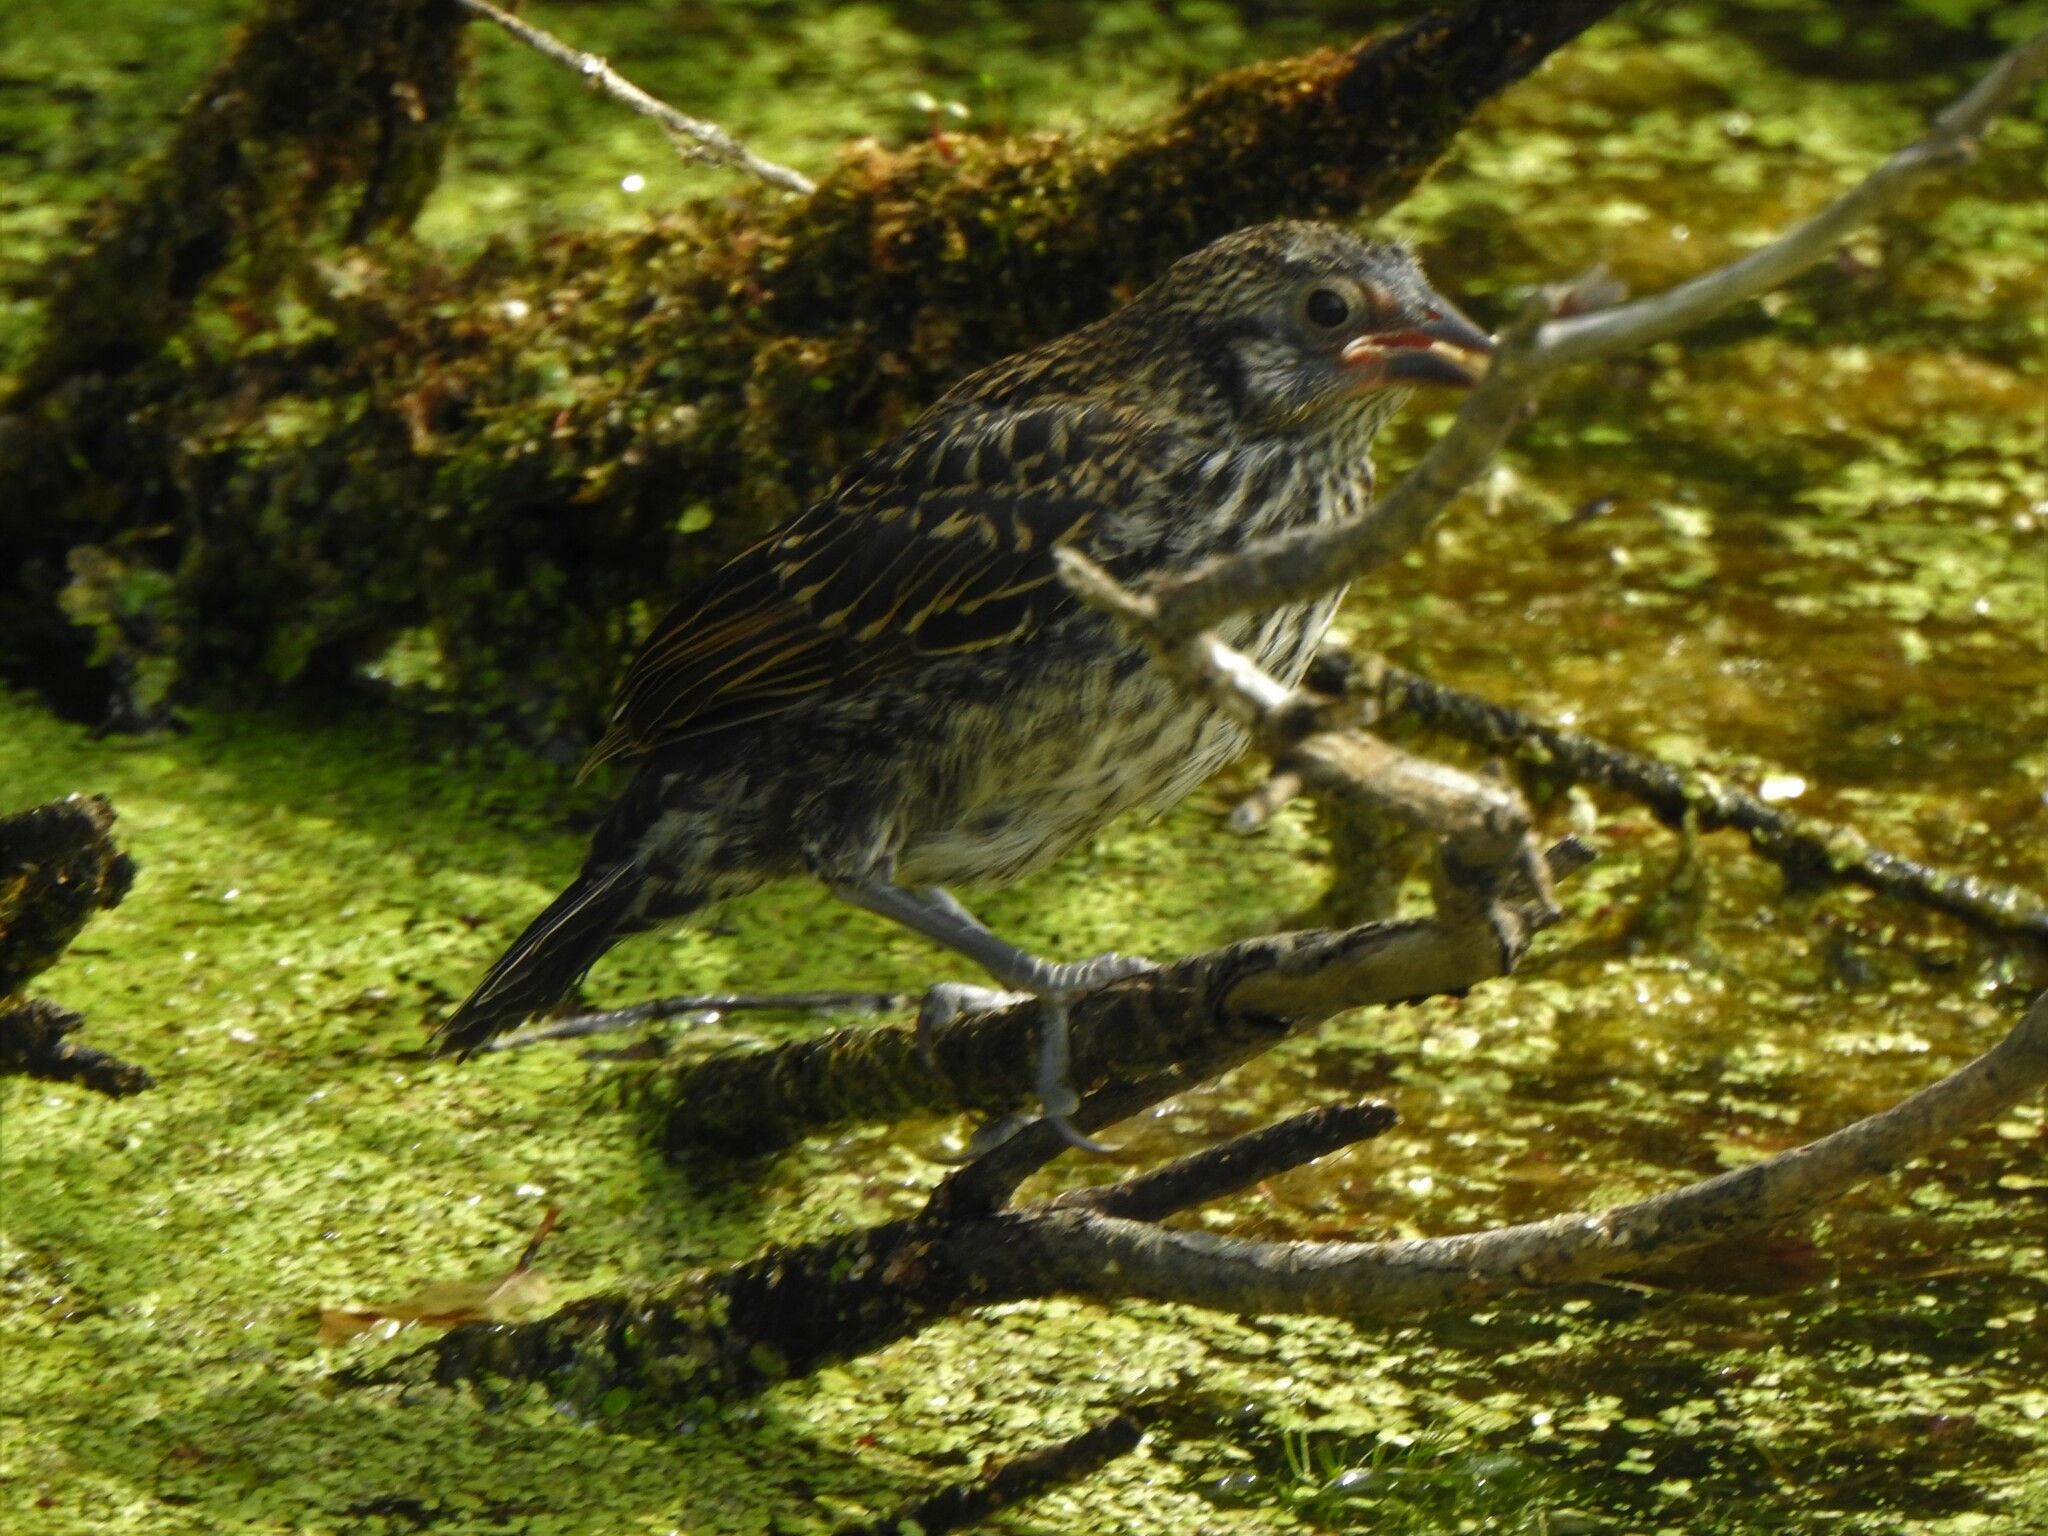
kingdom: Animalia
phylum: Chordata
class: Aves
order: Passeriformes
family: Icteridae
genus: Agelaius
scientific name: Agelaius phoeniceus
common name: Red-winged blackbird
